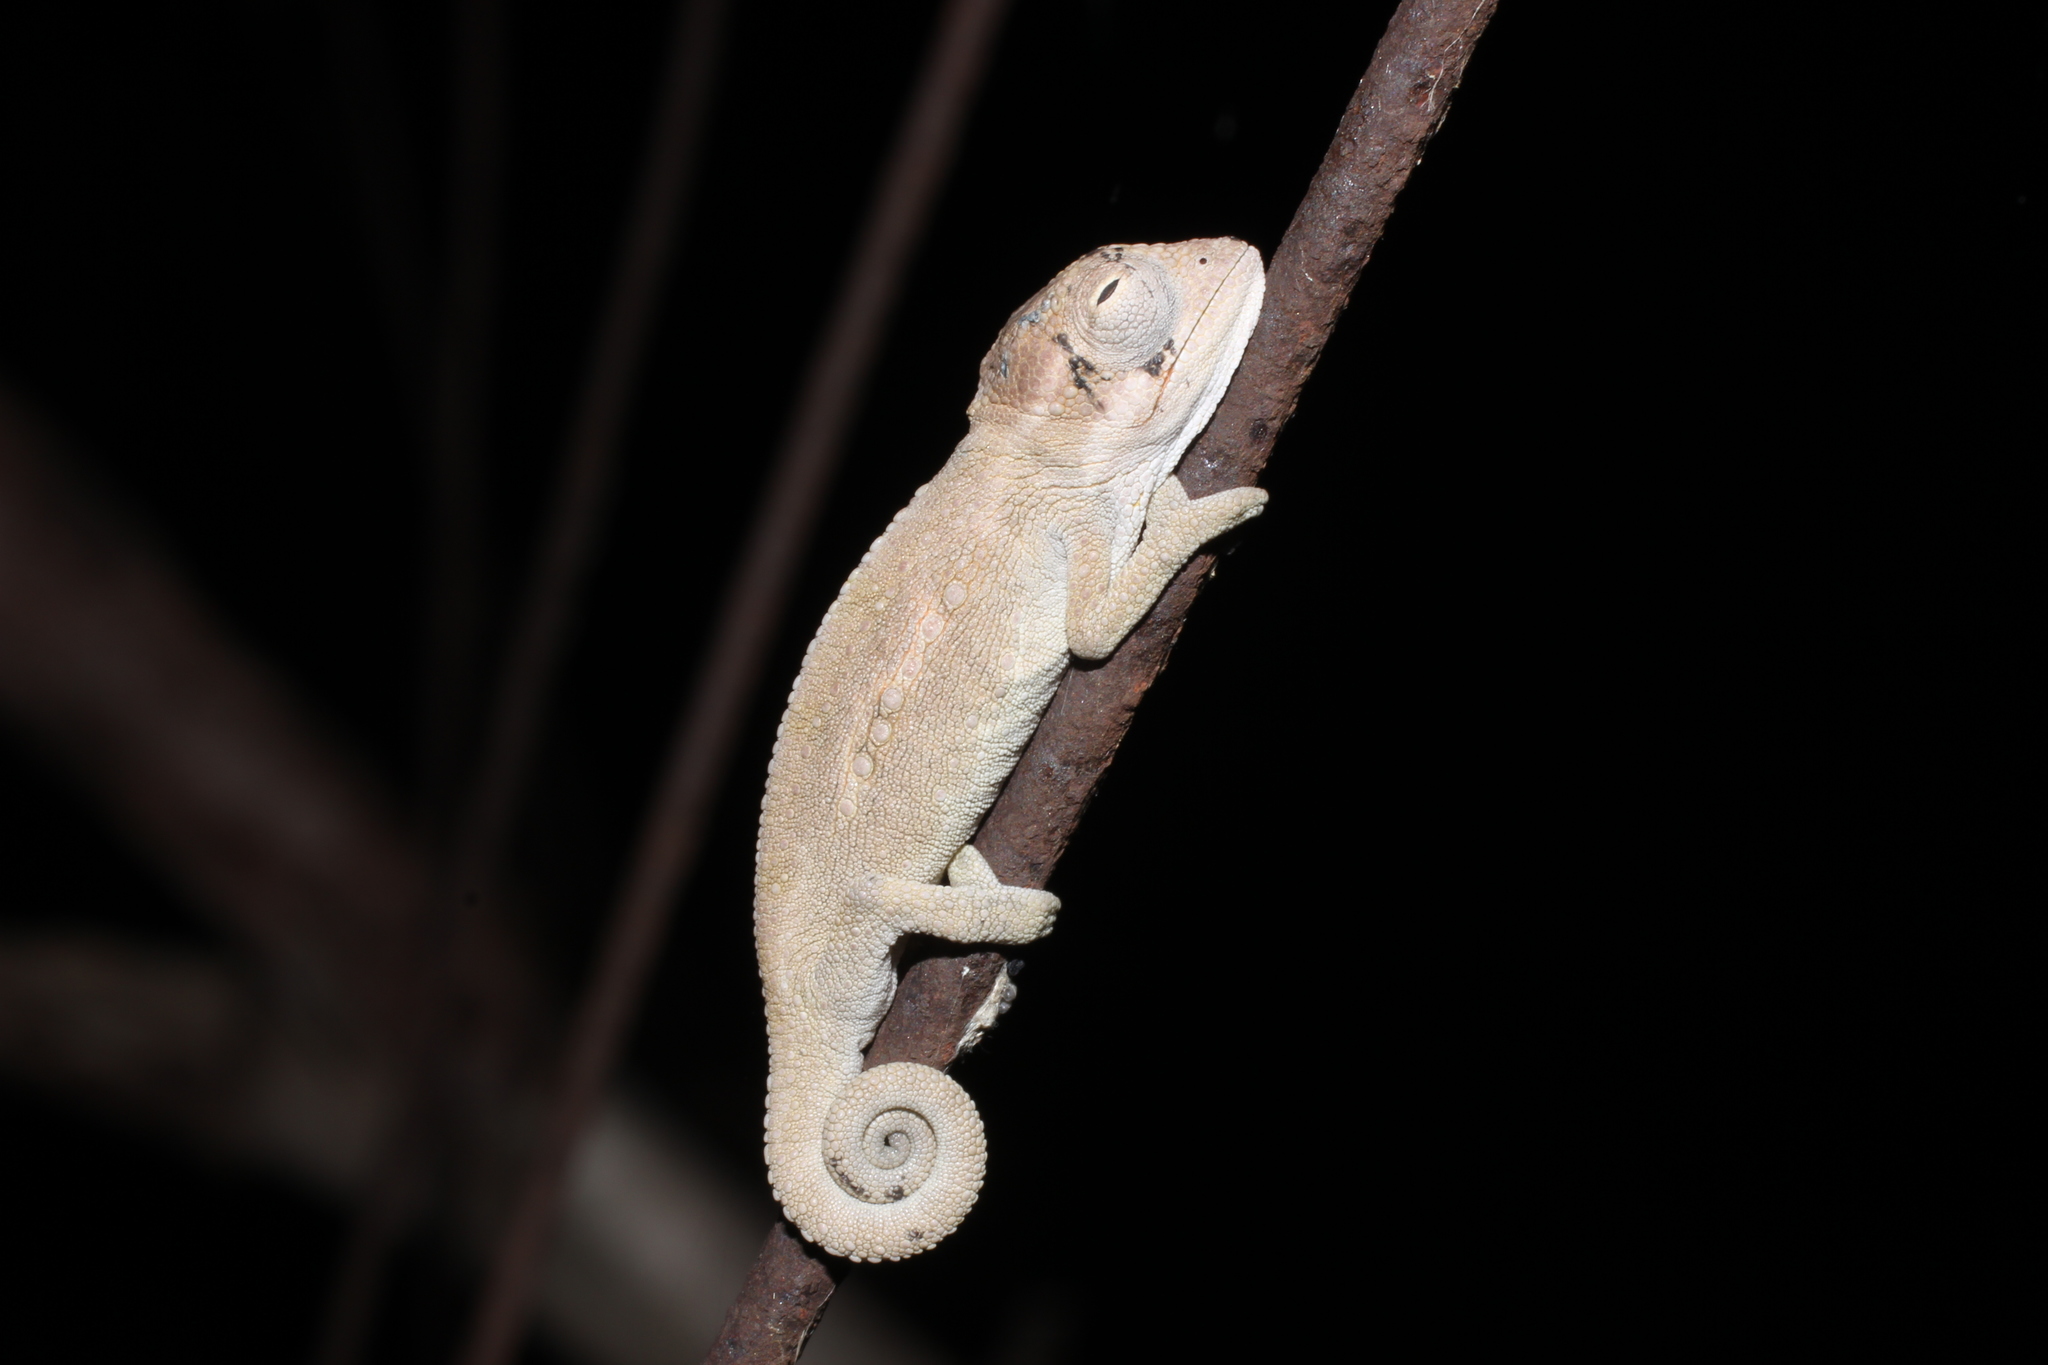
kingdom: Animalia
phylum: Chordata
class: Squamata
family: Chamaeleonidae
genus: Bradypodion
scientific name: Bradypodion pumilum
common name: Cape dwarf chameleon
